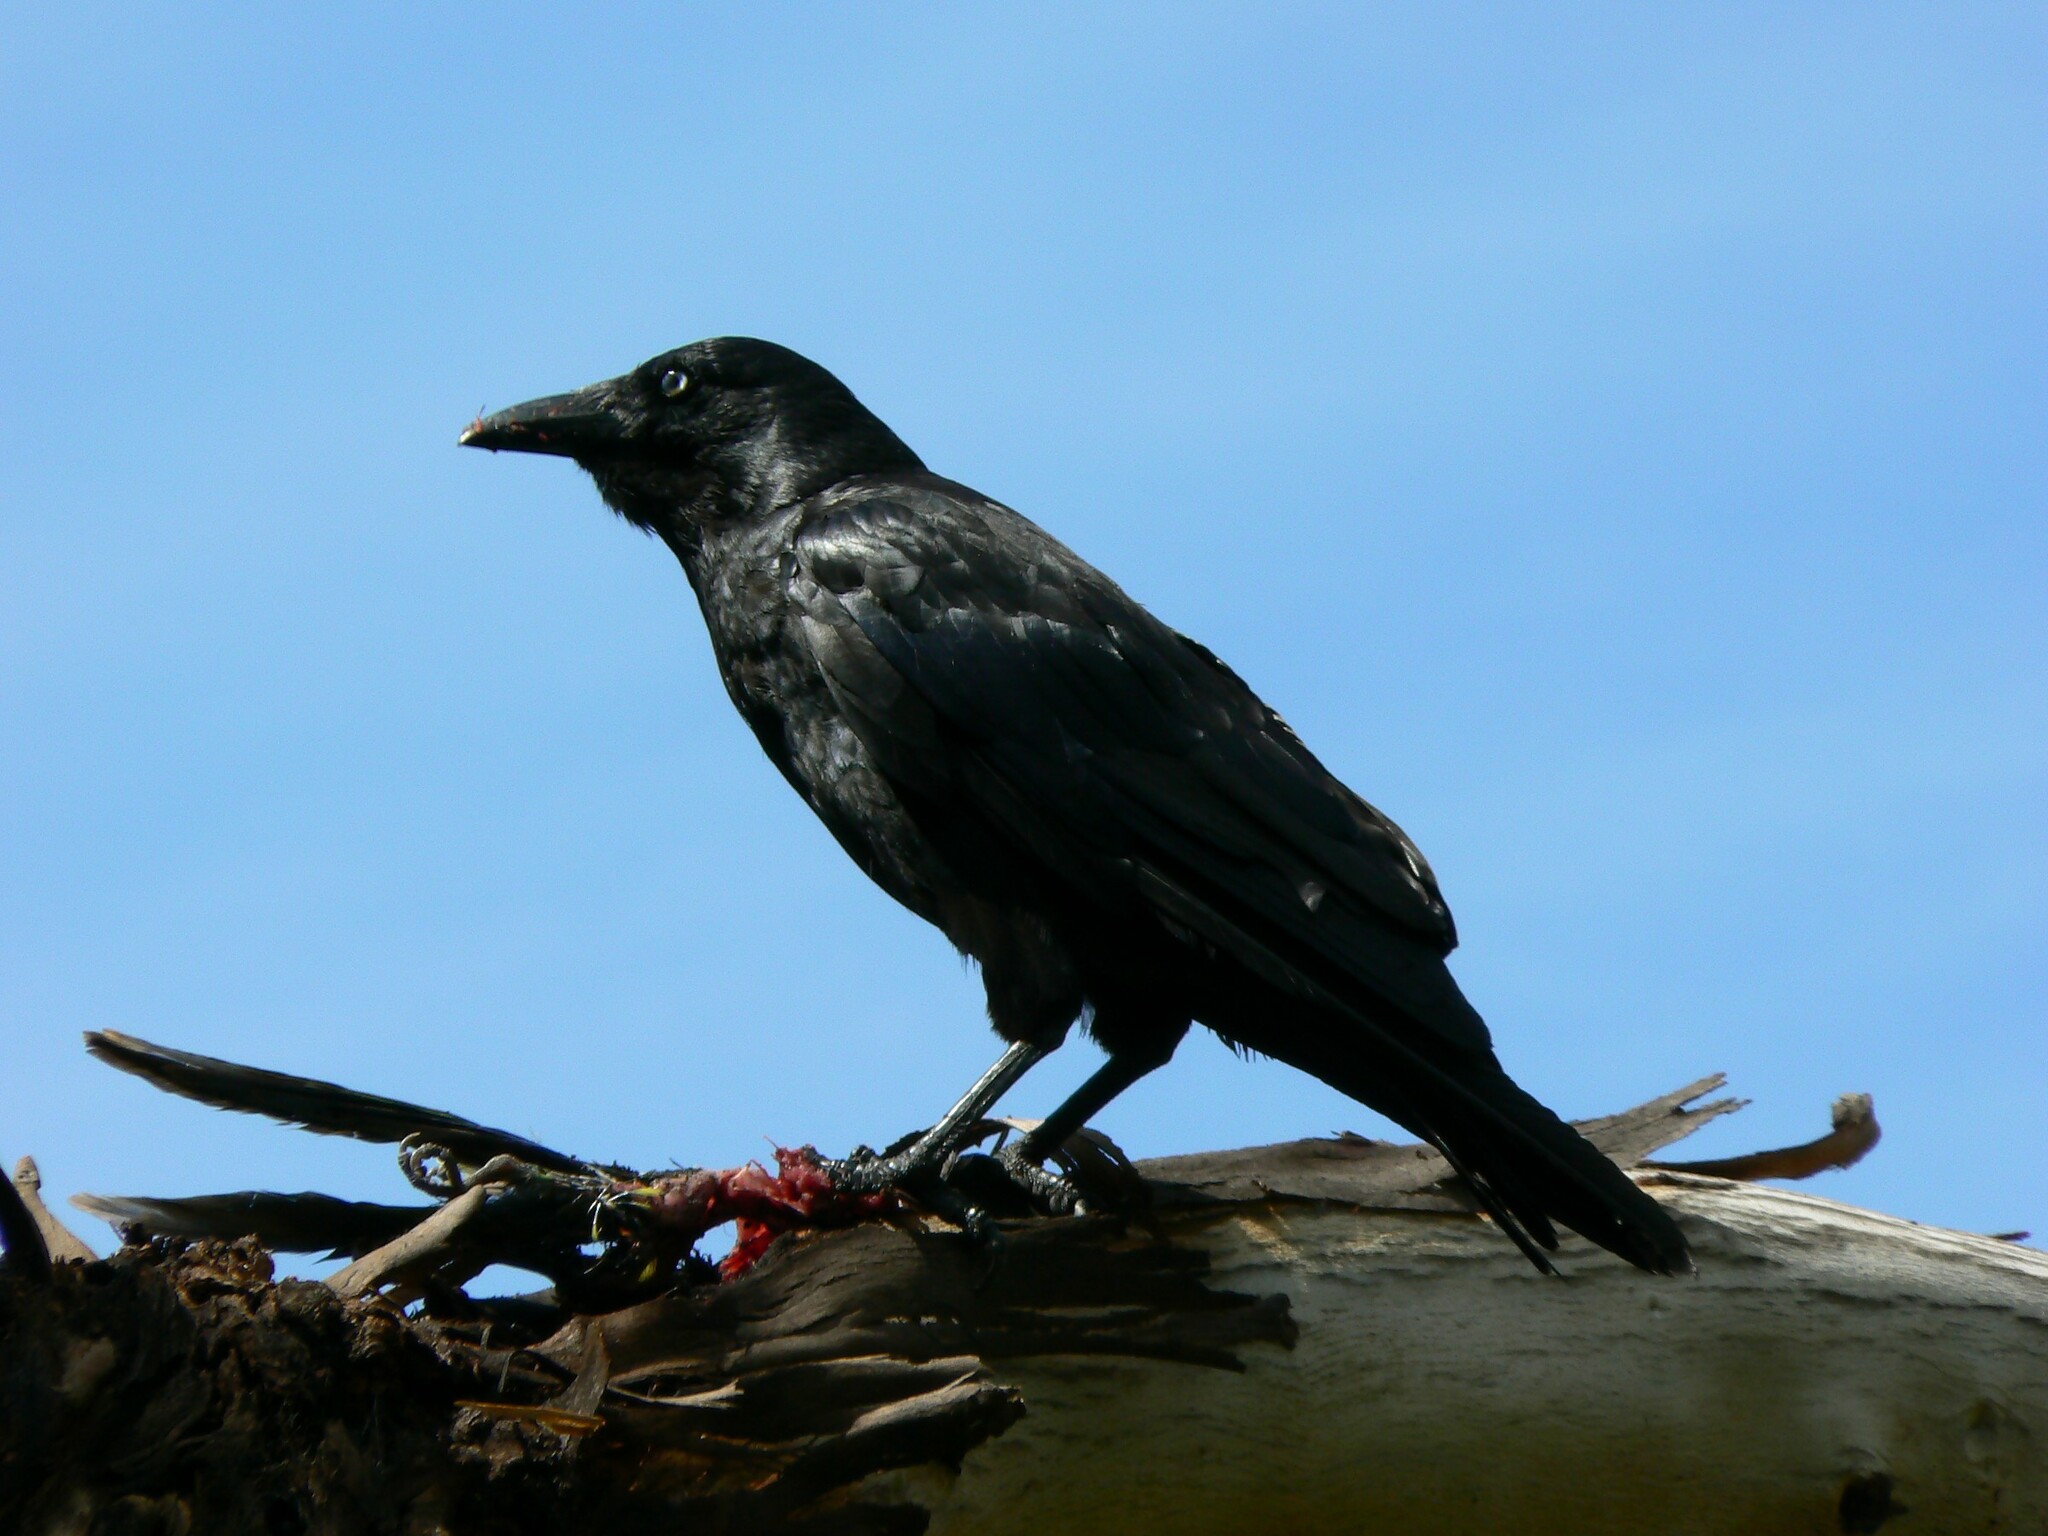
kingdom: Animalia
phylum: Chordata
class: Aves
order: Passeriformes
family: Corvidae
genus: Corvus
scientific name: Corvus tasmanicus
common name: Forest raven
